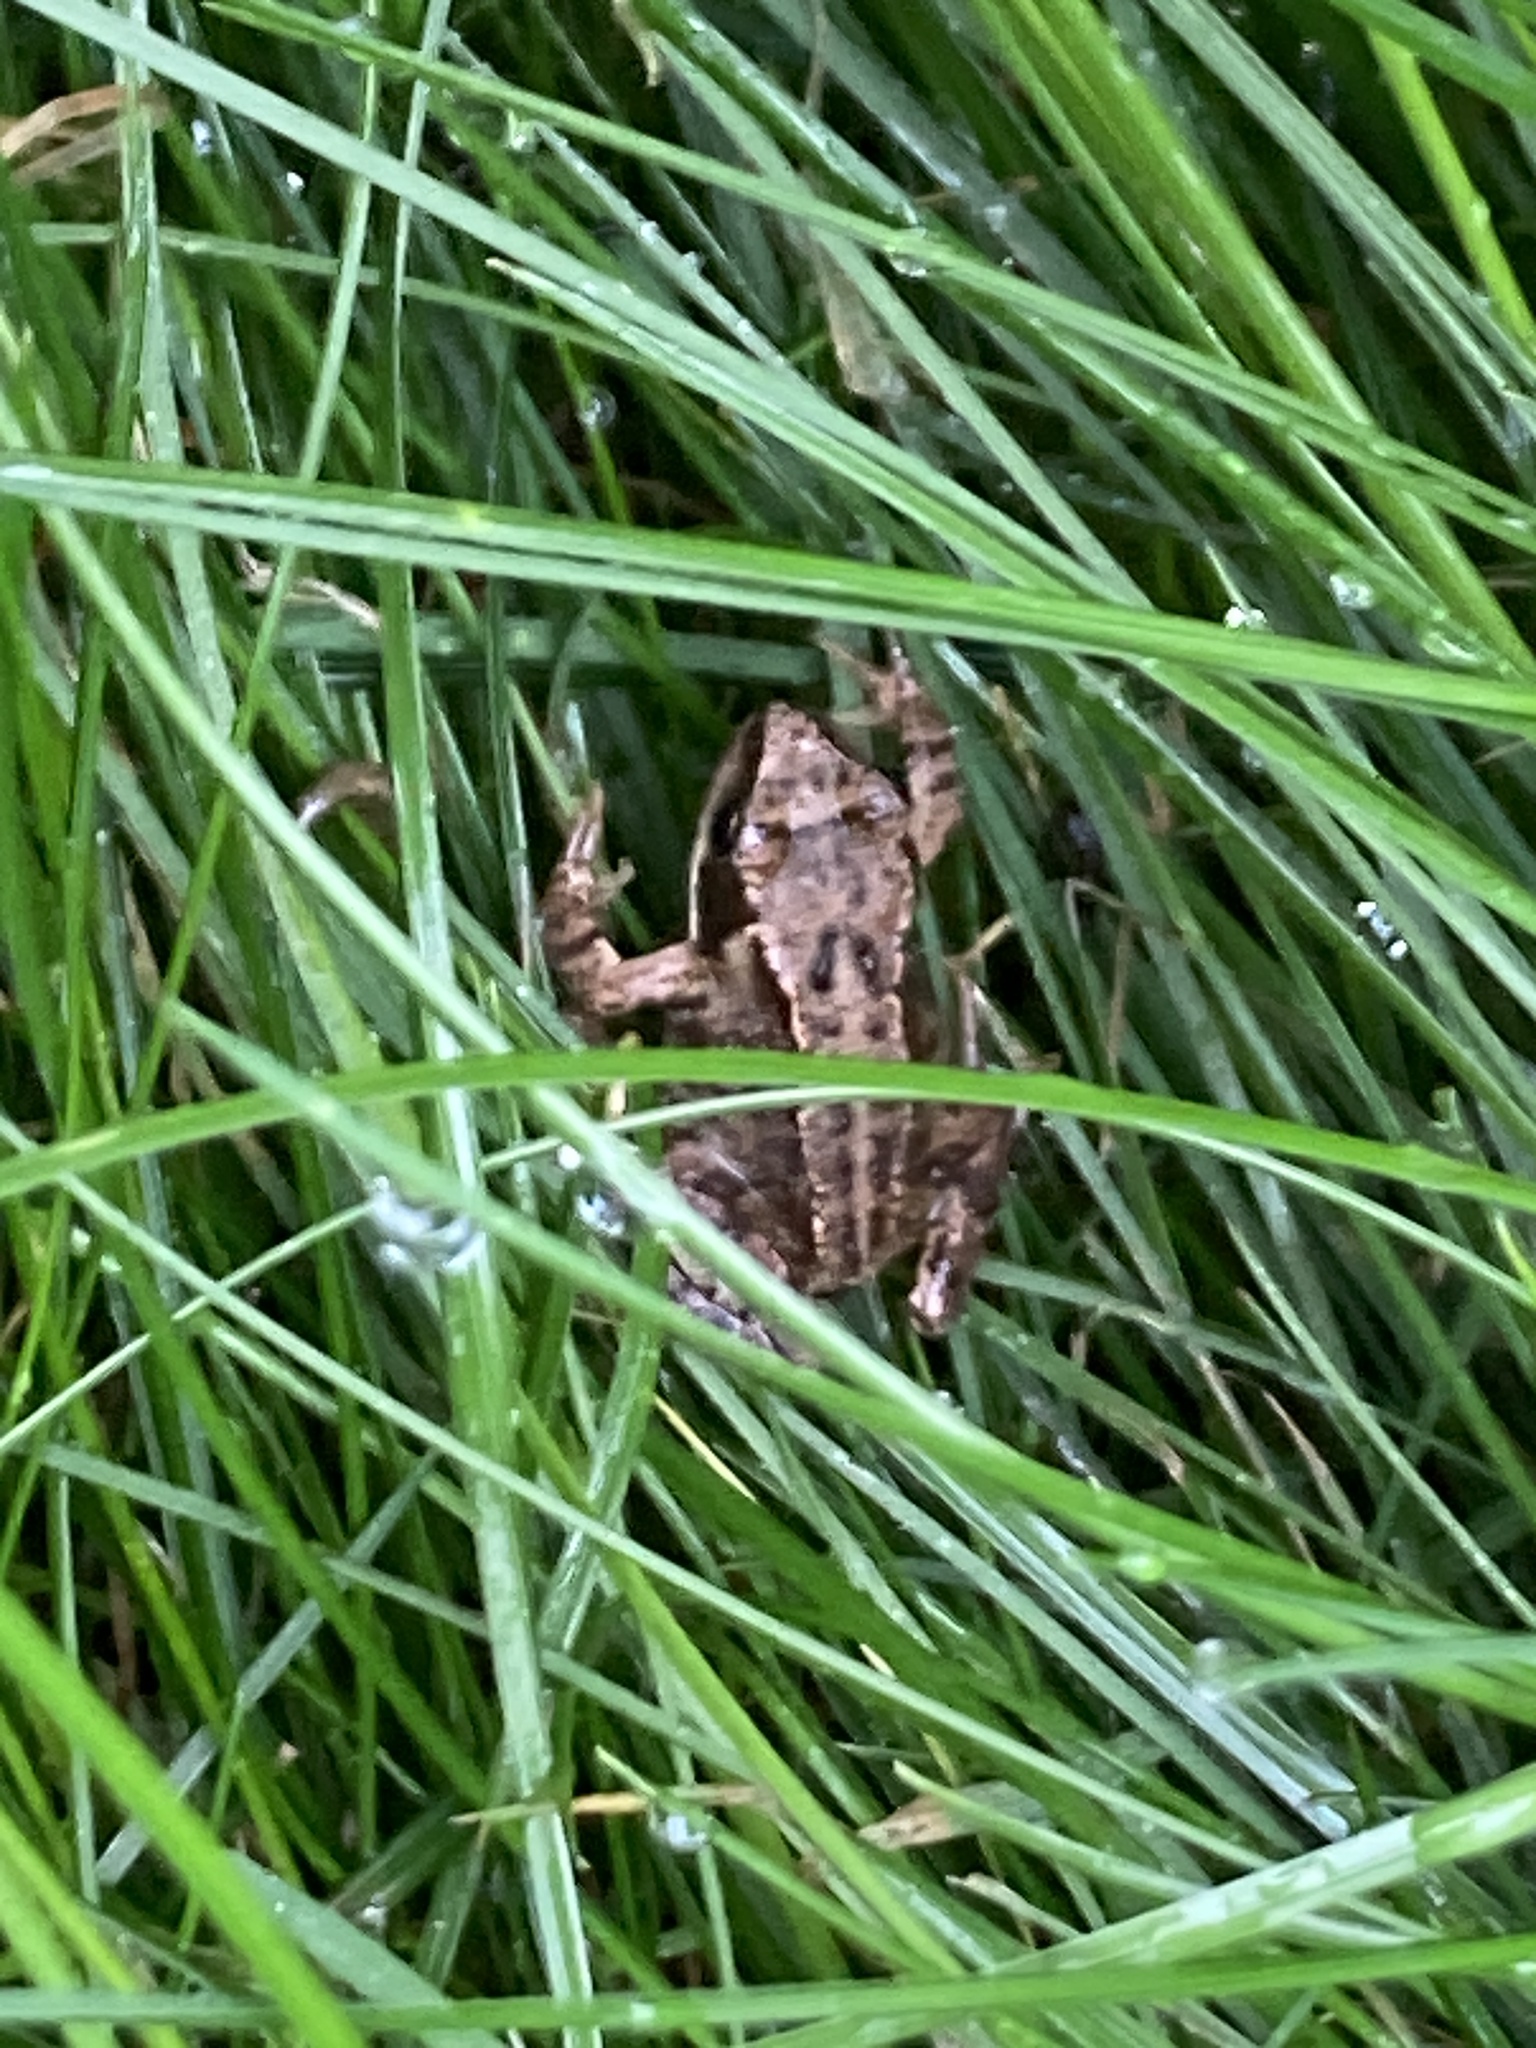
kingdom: Animalia
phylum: Chordata
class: Amphibia
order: Anura
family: Ranidae
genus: Rana
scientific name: Rana temporaria
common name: Common frog
